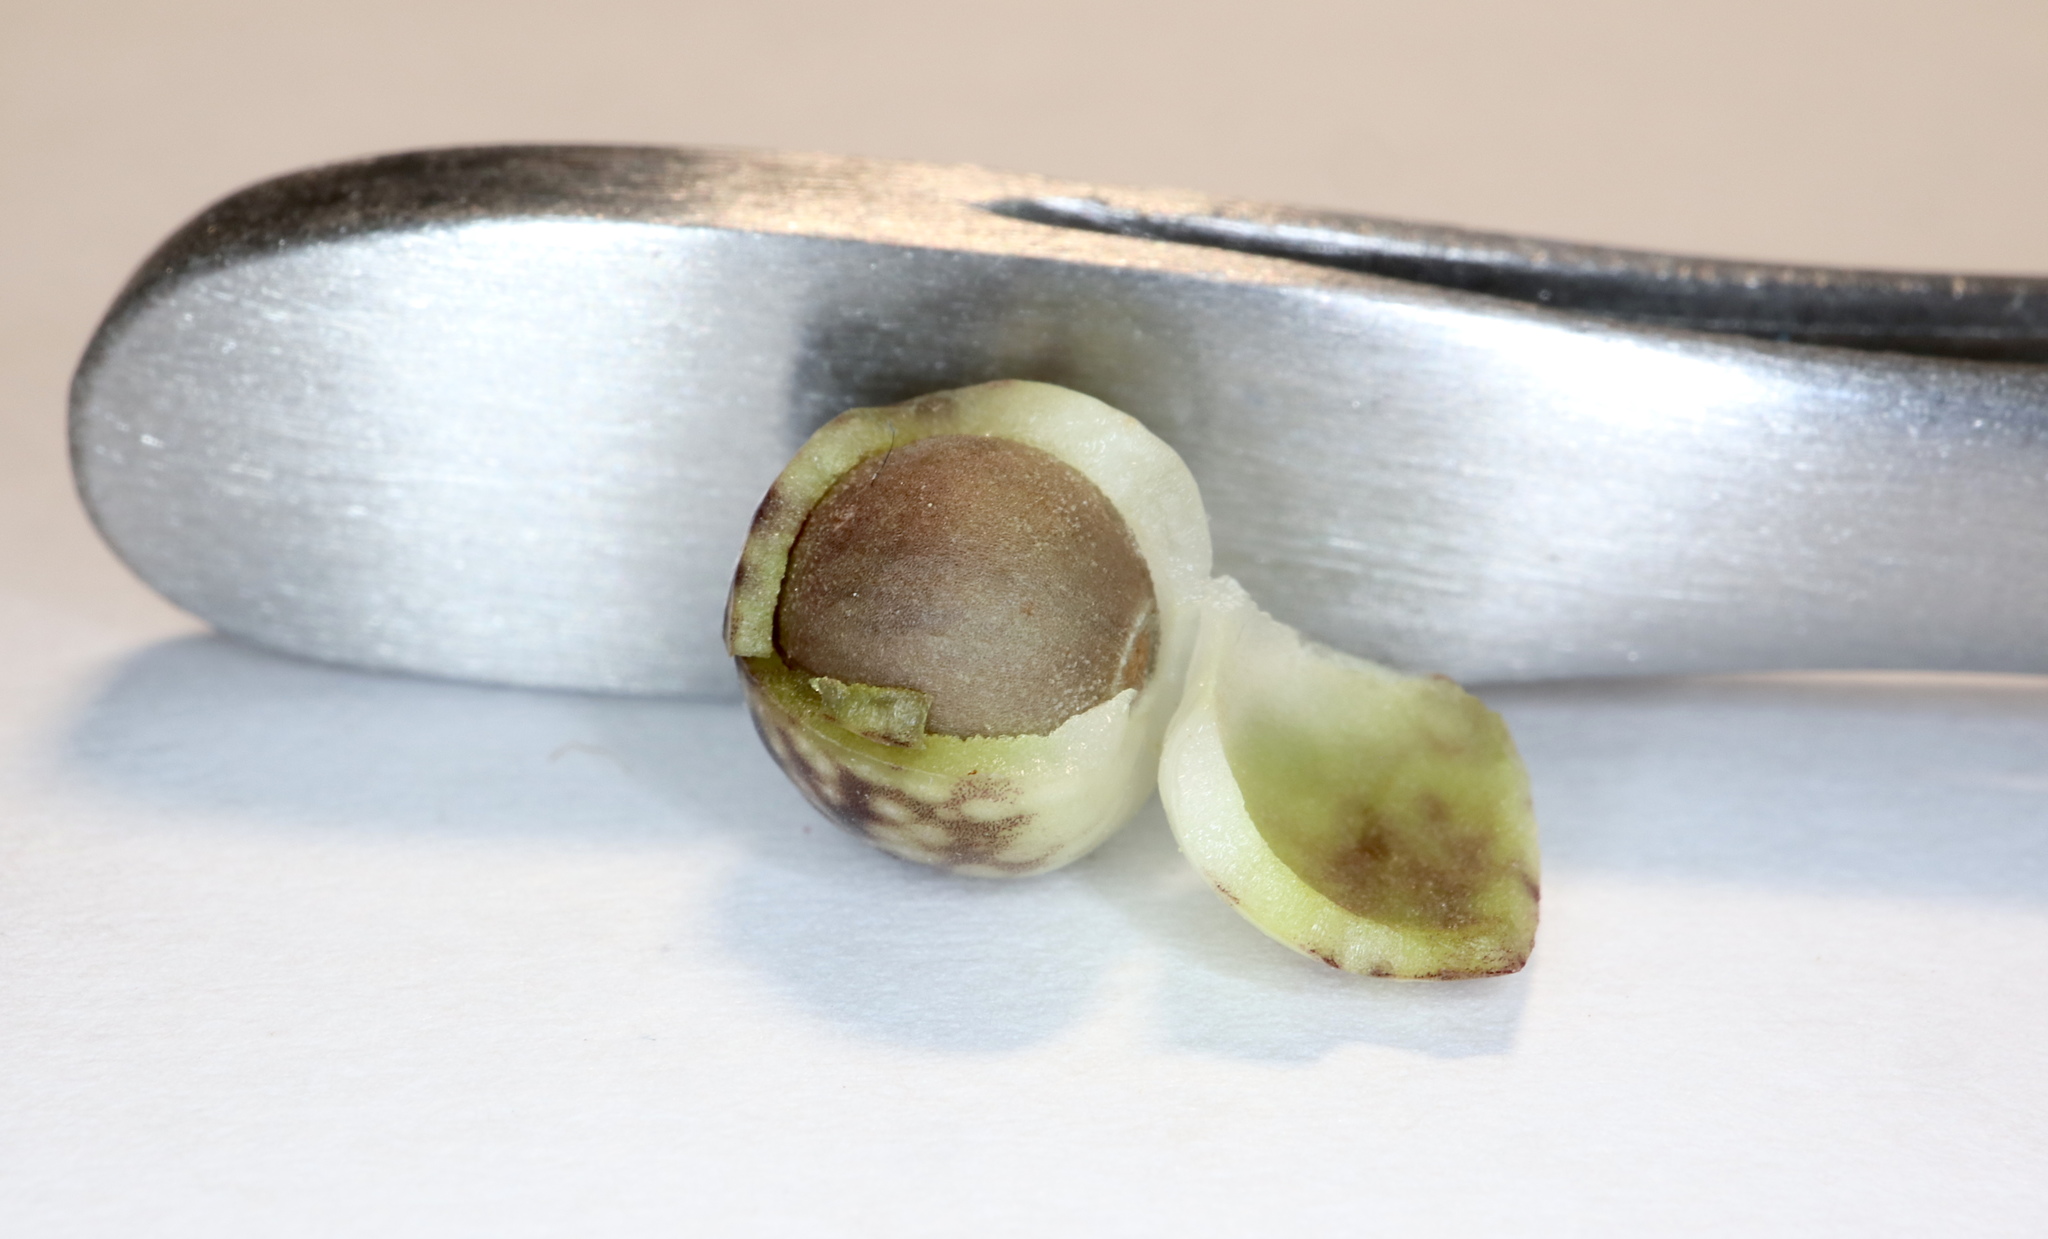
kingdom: Animalia
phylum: Arthropoda
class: Insecta
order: Hymenoptera
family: Cynipidae
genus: Andricus
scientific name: Andricus
